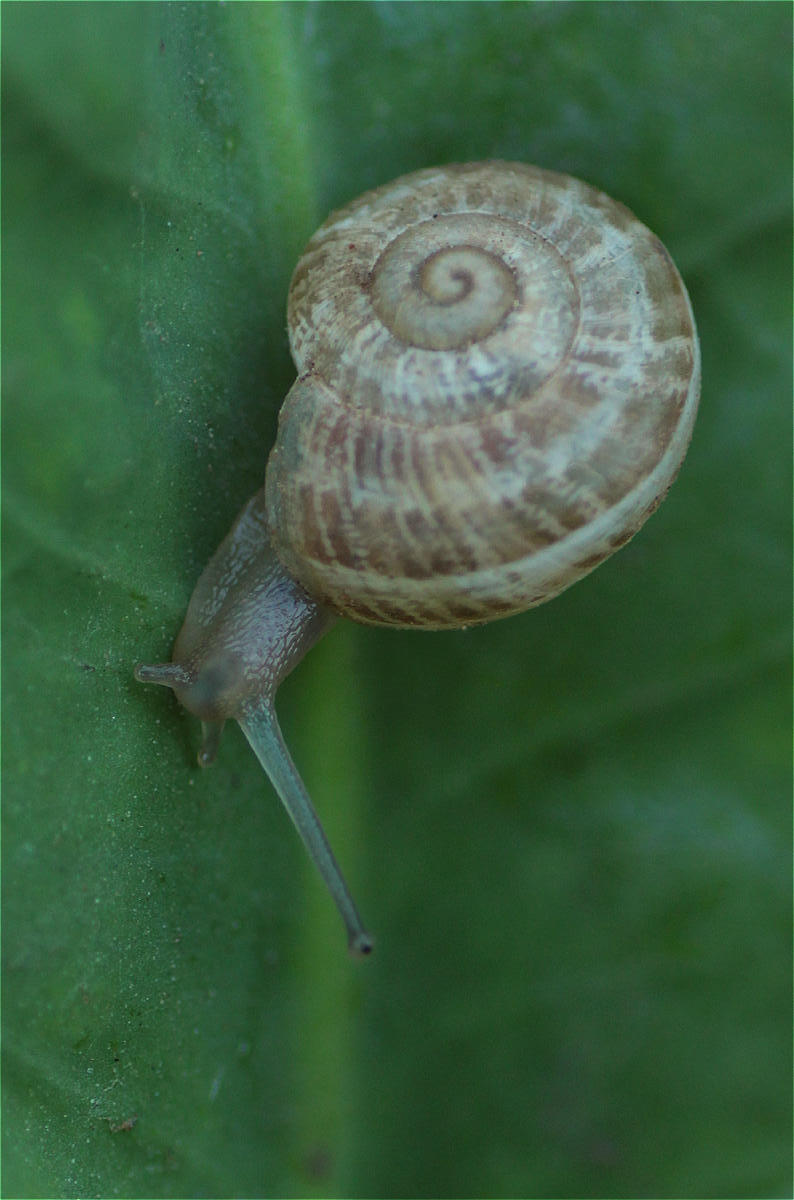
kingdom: Animalia
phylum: Mollusca
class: Gastropoda
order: Stylommatophora
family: Helicidae
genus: Eobania
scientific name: Eobania vermiculata
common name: Chocolateband snail
